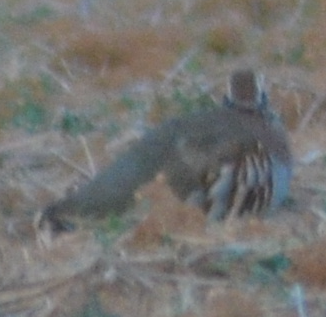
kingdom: Animalia
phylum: Chordata
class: Aves
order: Galliformes
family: Phasianidae
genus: Alectoris
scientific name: Alectoris rufa
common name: Red-legged partridge
